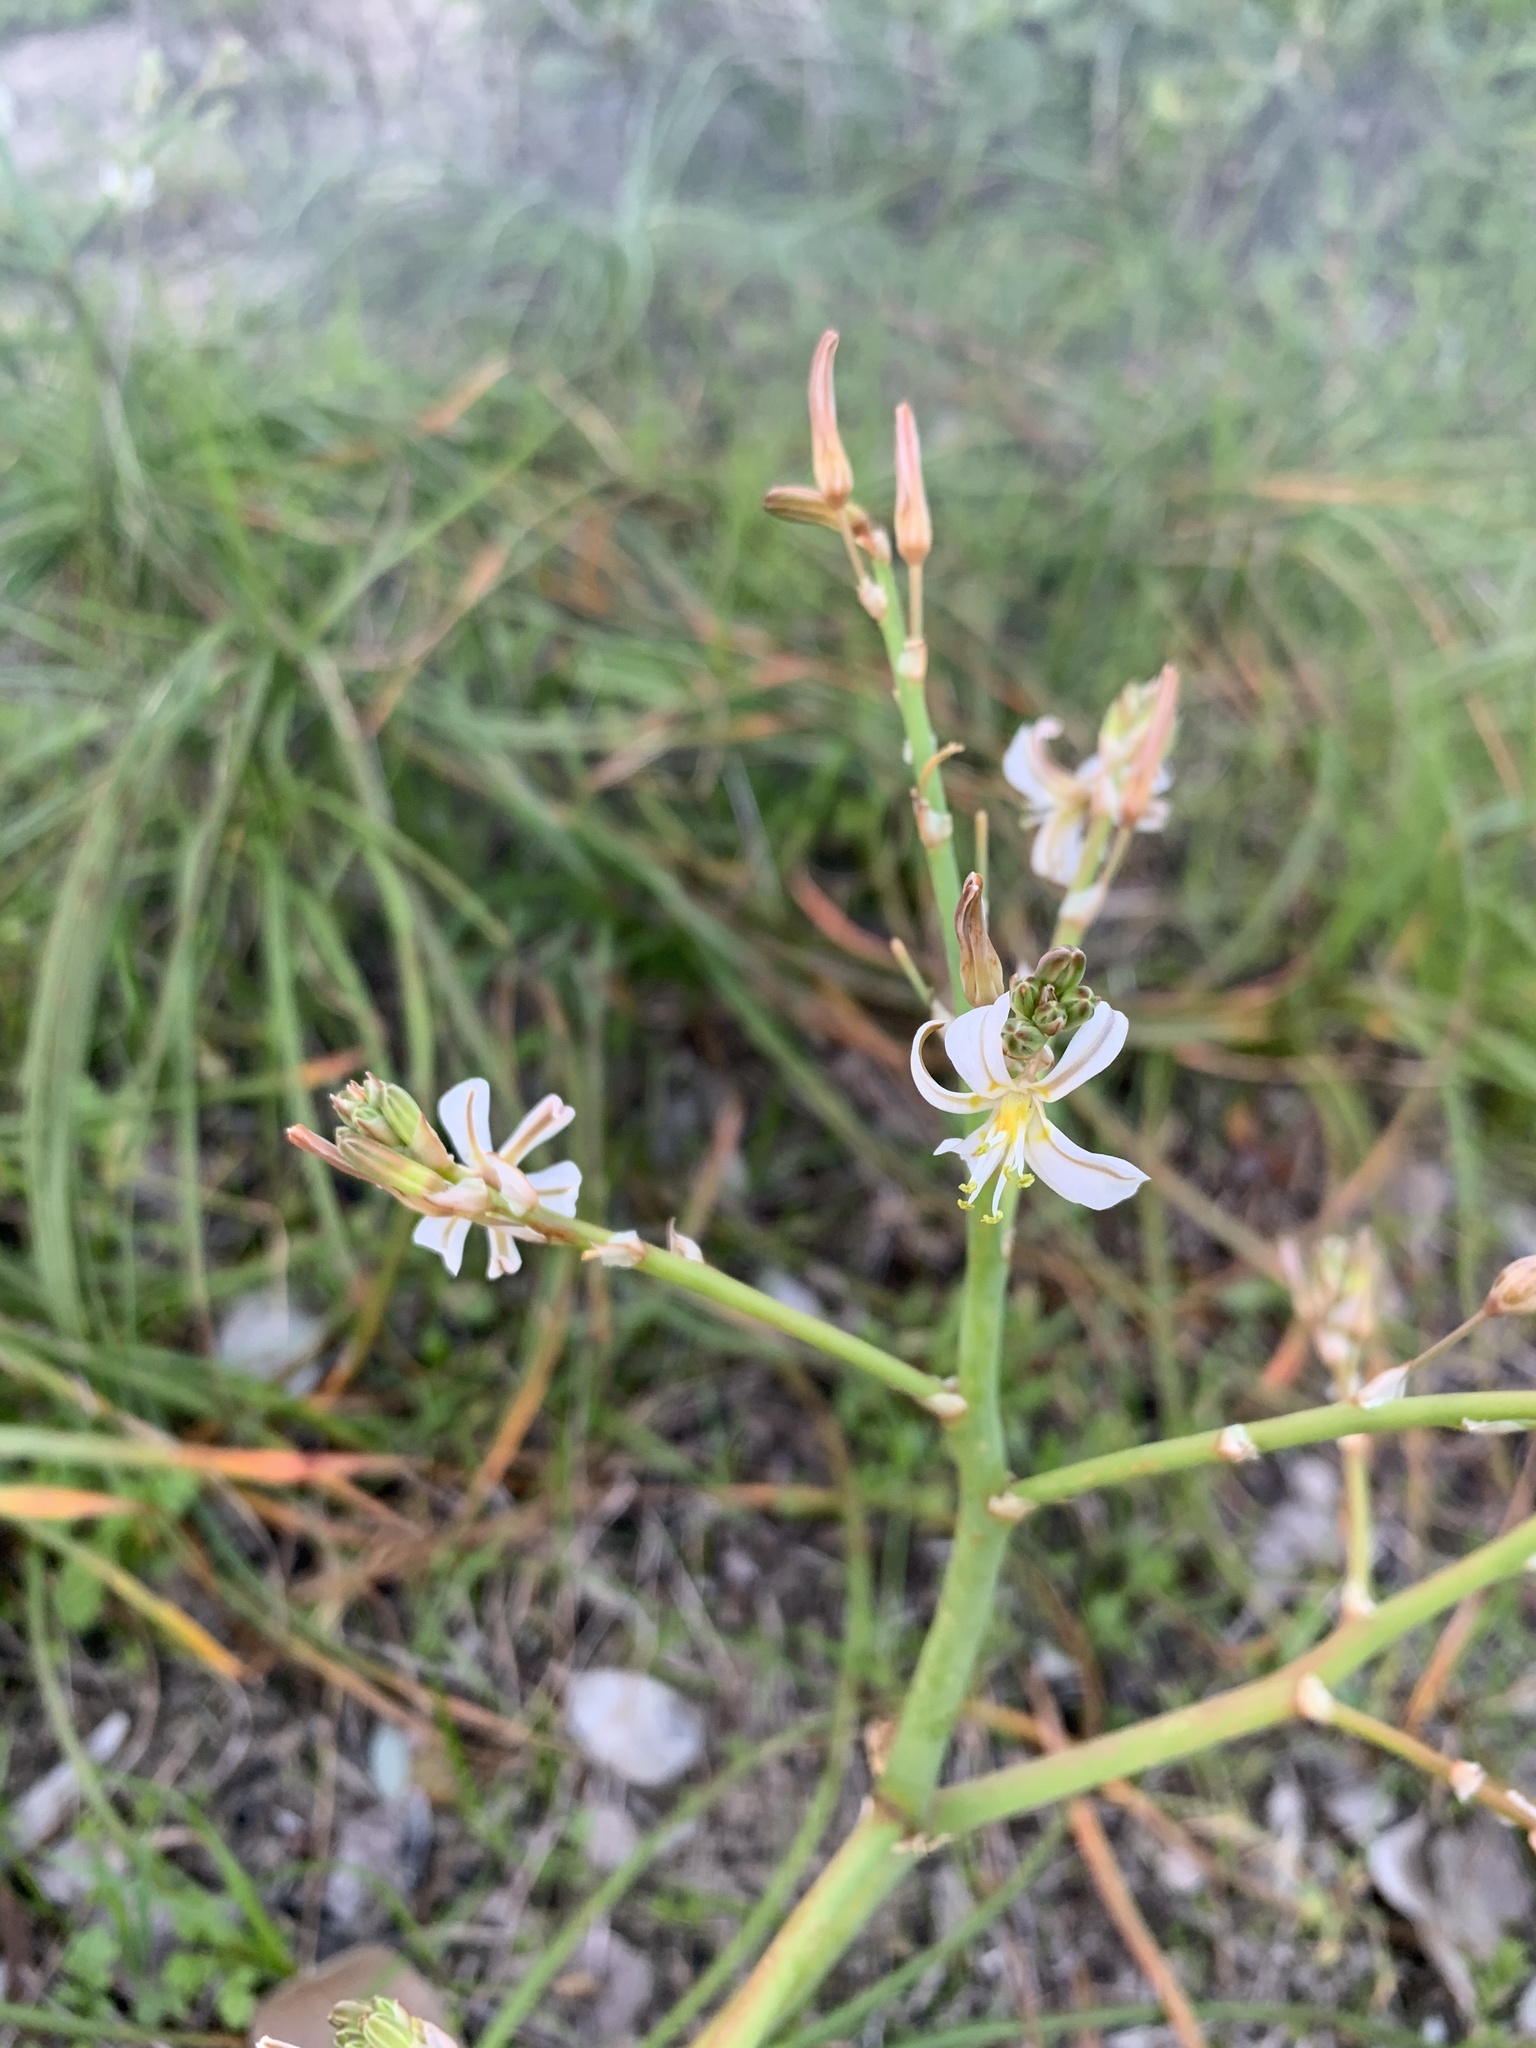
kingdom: Plantae
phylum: Tracheophyta
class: Liliopsida
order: Asparagales
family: Asphodelaceae
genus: Trachyandra
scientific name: Trachyandra divaricata
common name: Dune onionweed
